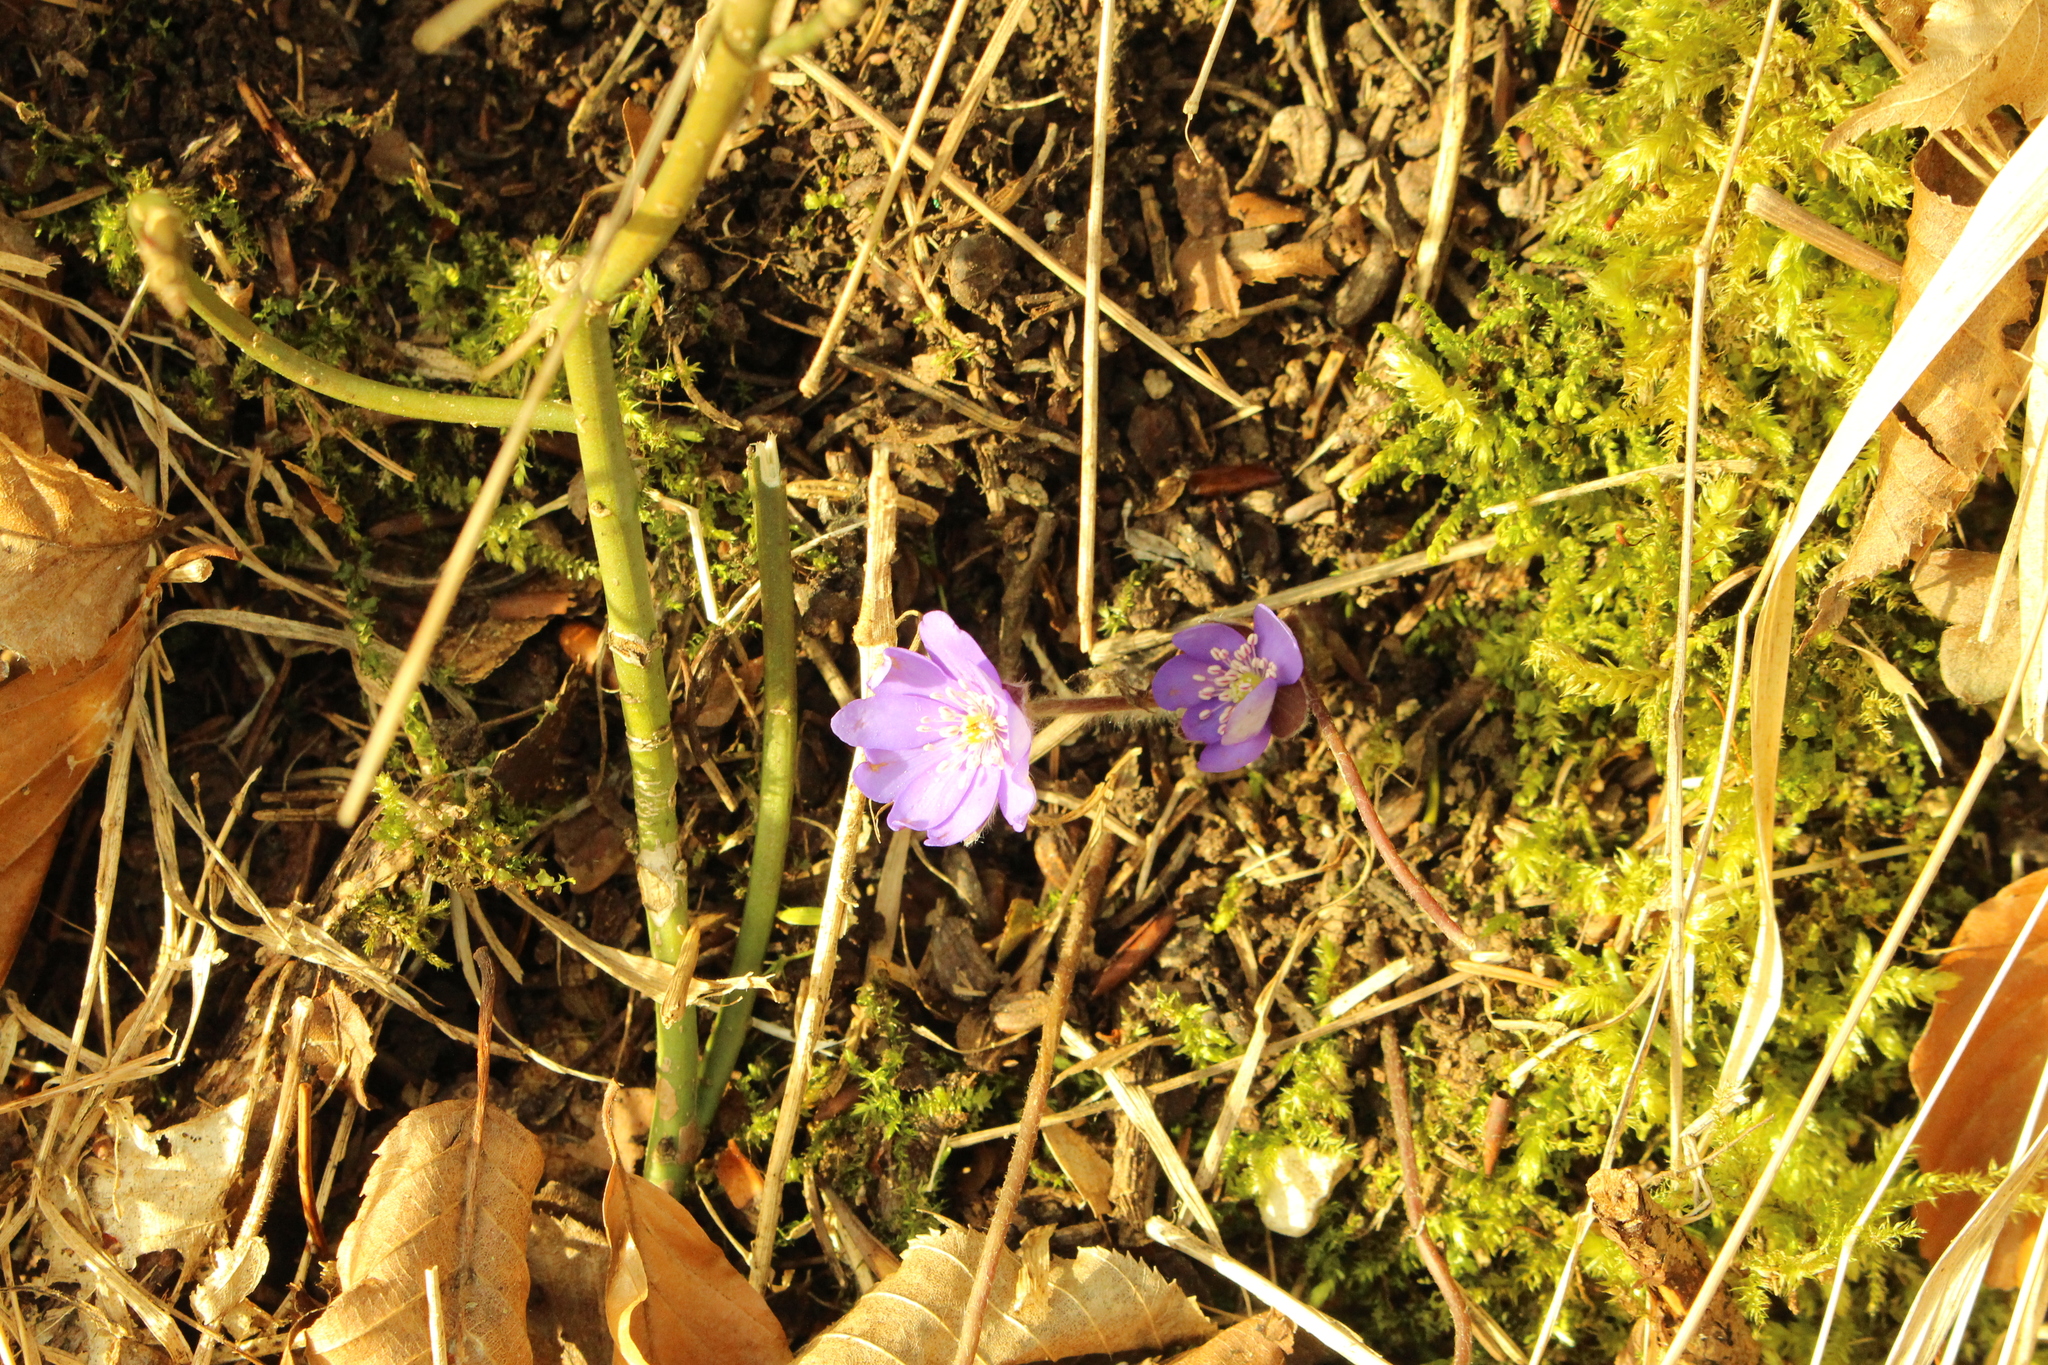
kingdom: Plantae
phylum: Tracheophyta
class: Magnoliopsida
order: Ranunculales
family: Ranunculaceae
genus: Hepatica
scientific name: Hepatica nobilis
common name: Liverleaf
